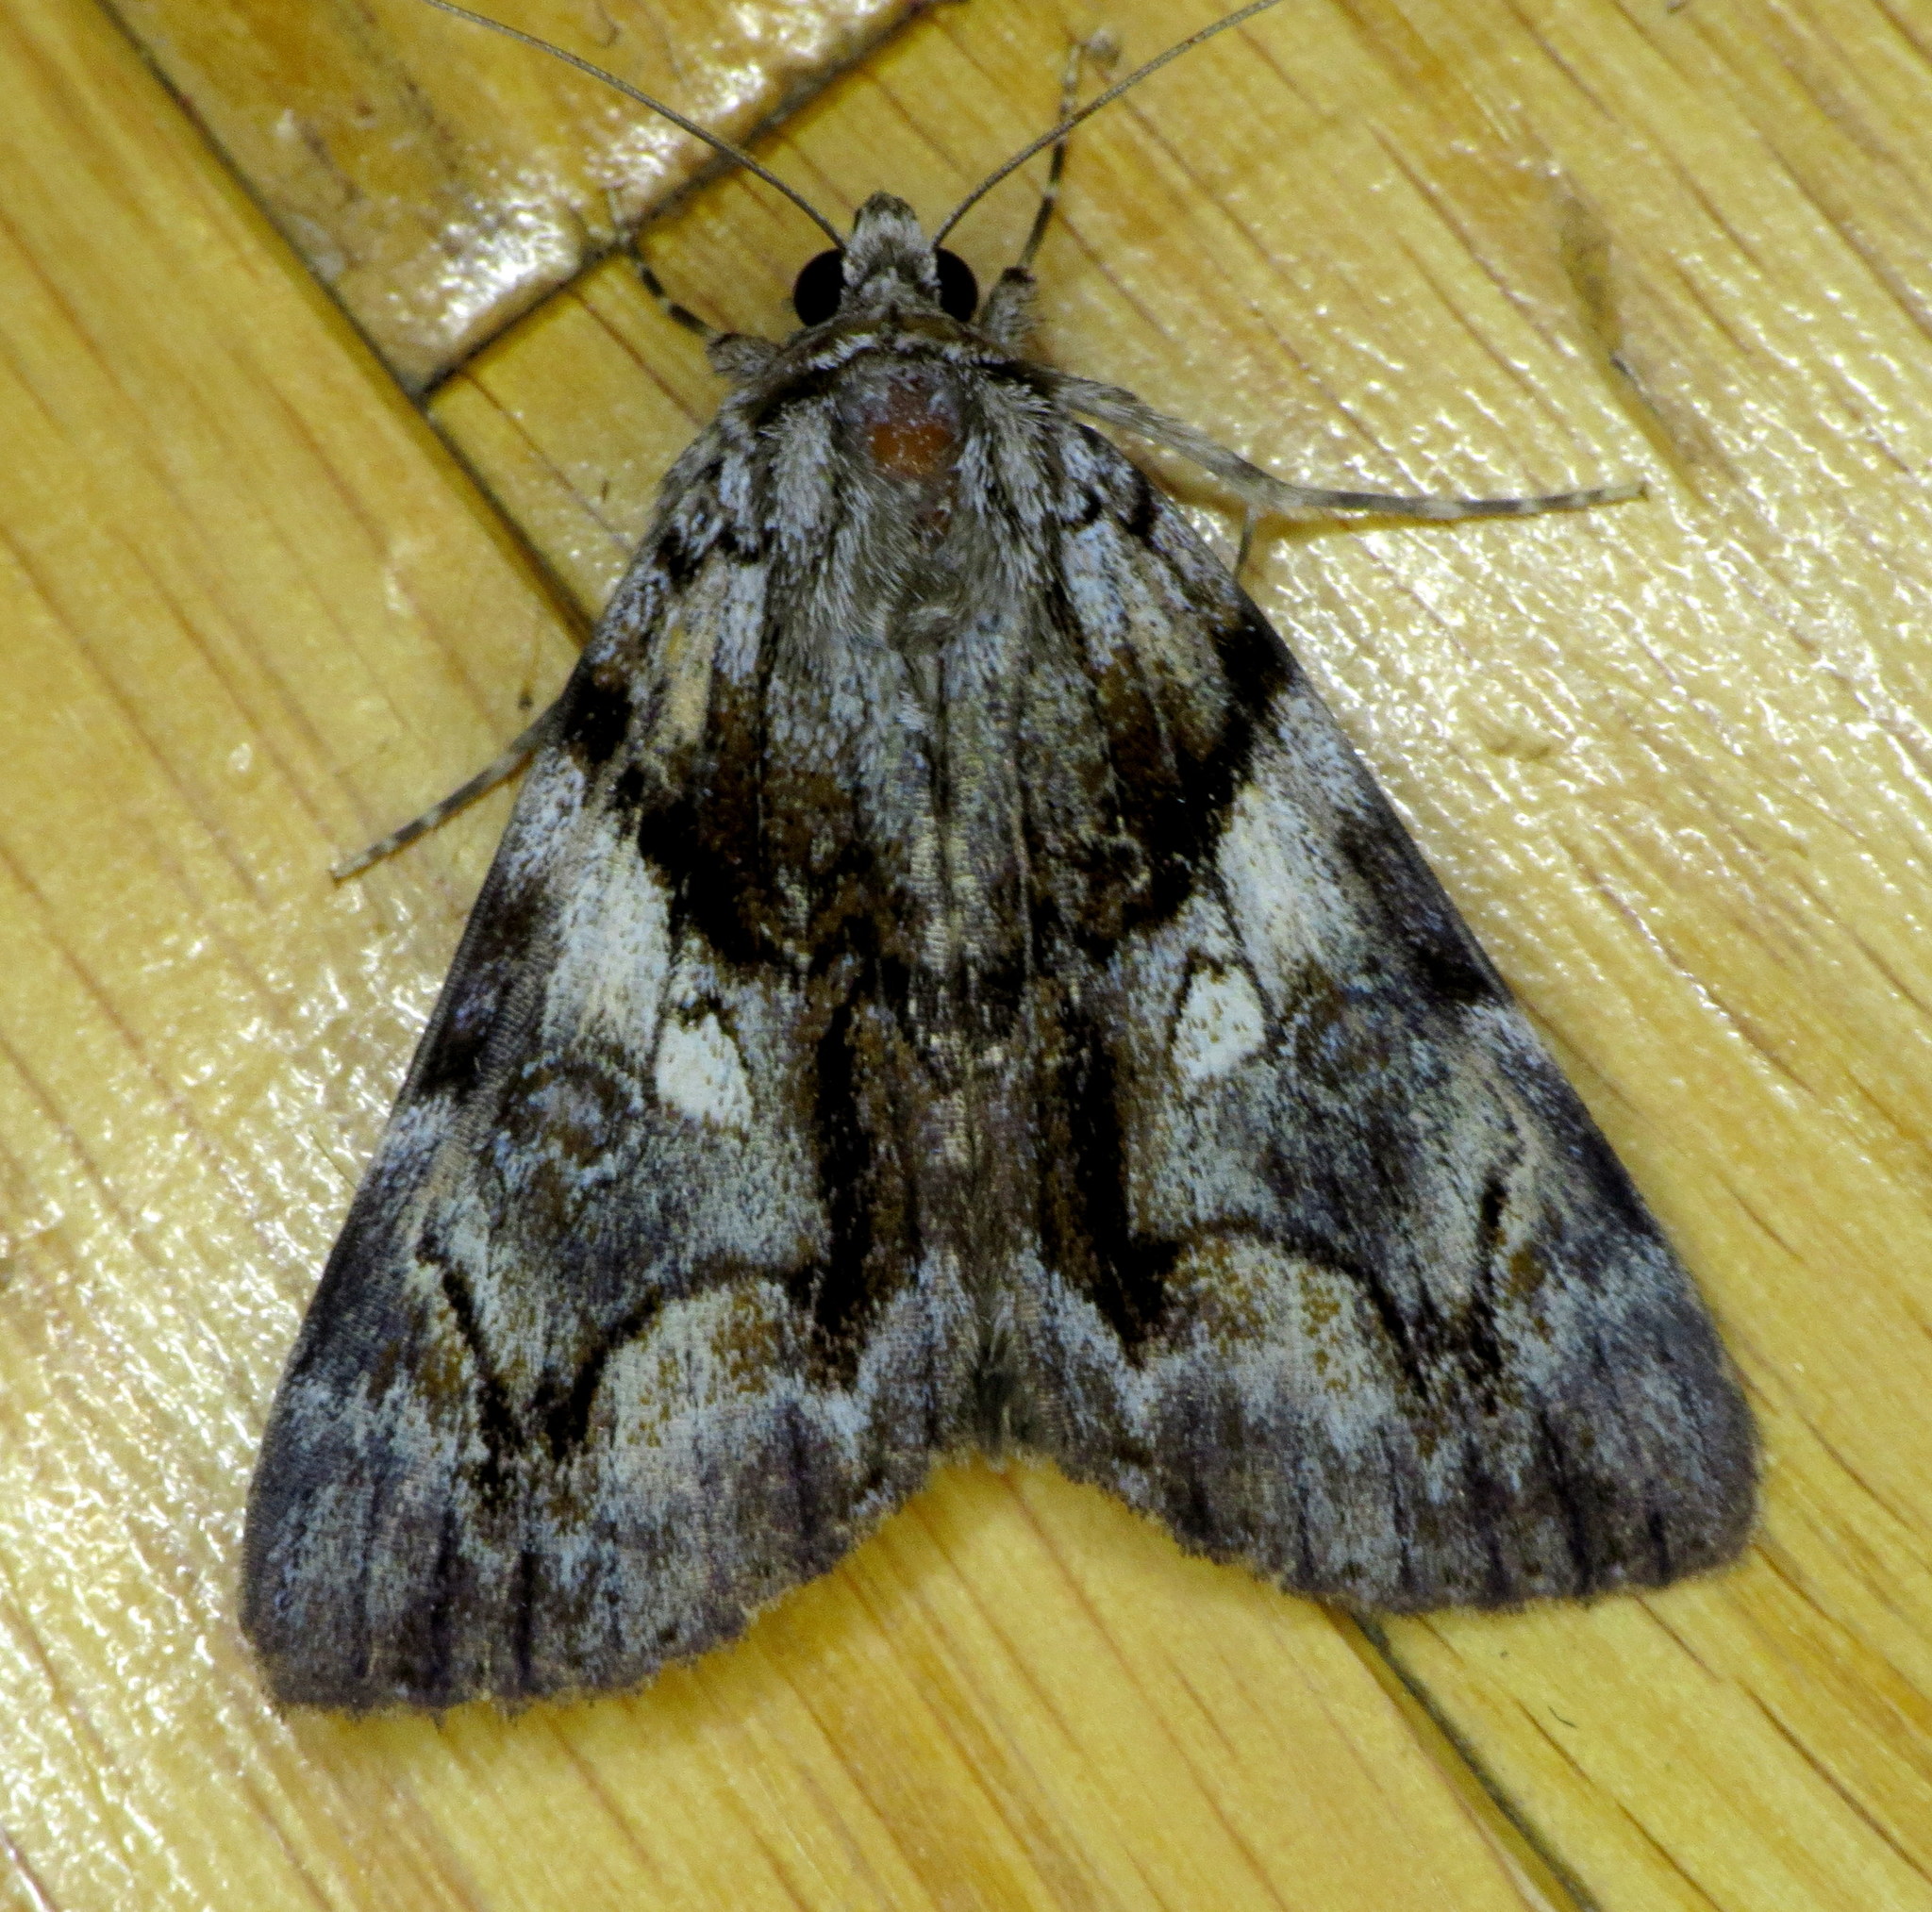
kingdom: Animalia
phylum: Arthropoda
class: Insecta
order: Lepidoptera
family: Erebidae
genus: Catocala
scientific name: Catocala blandula
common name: Charming underwing
